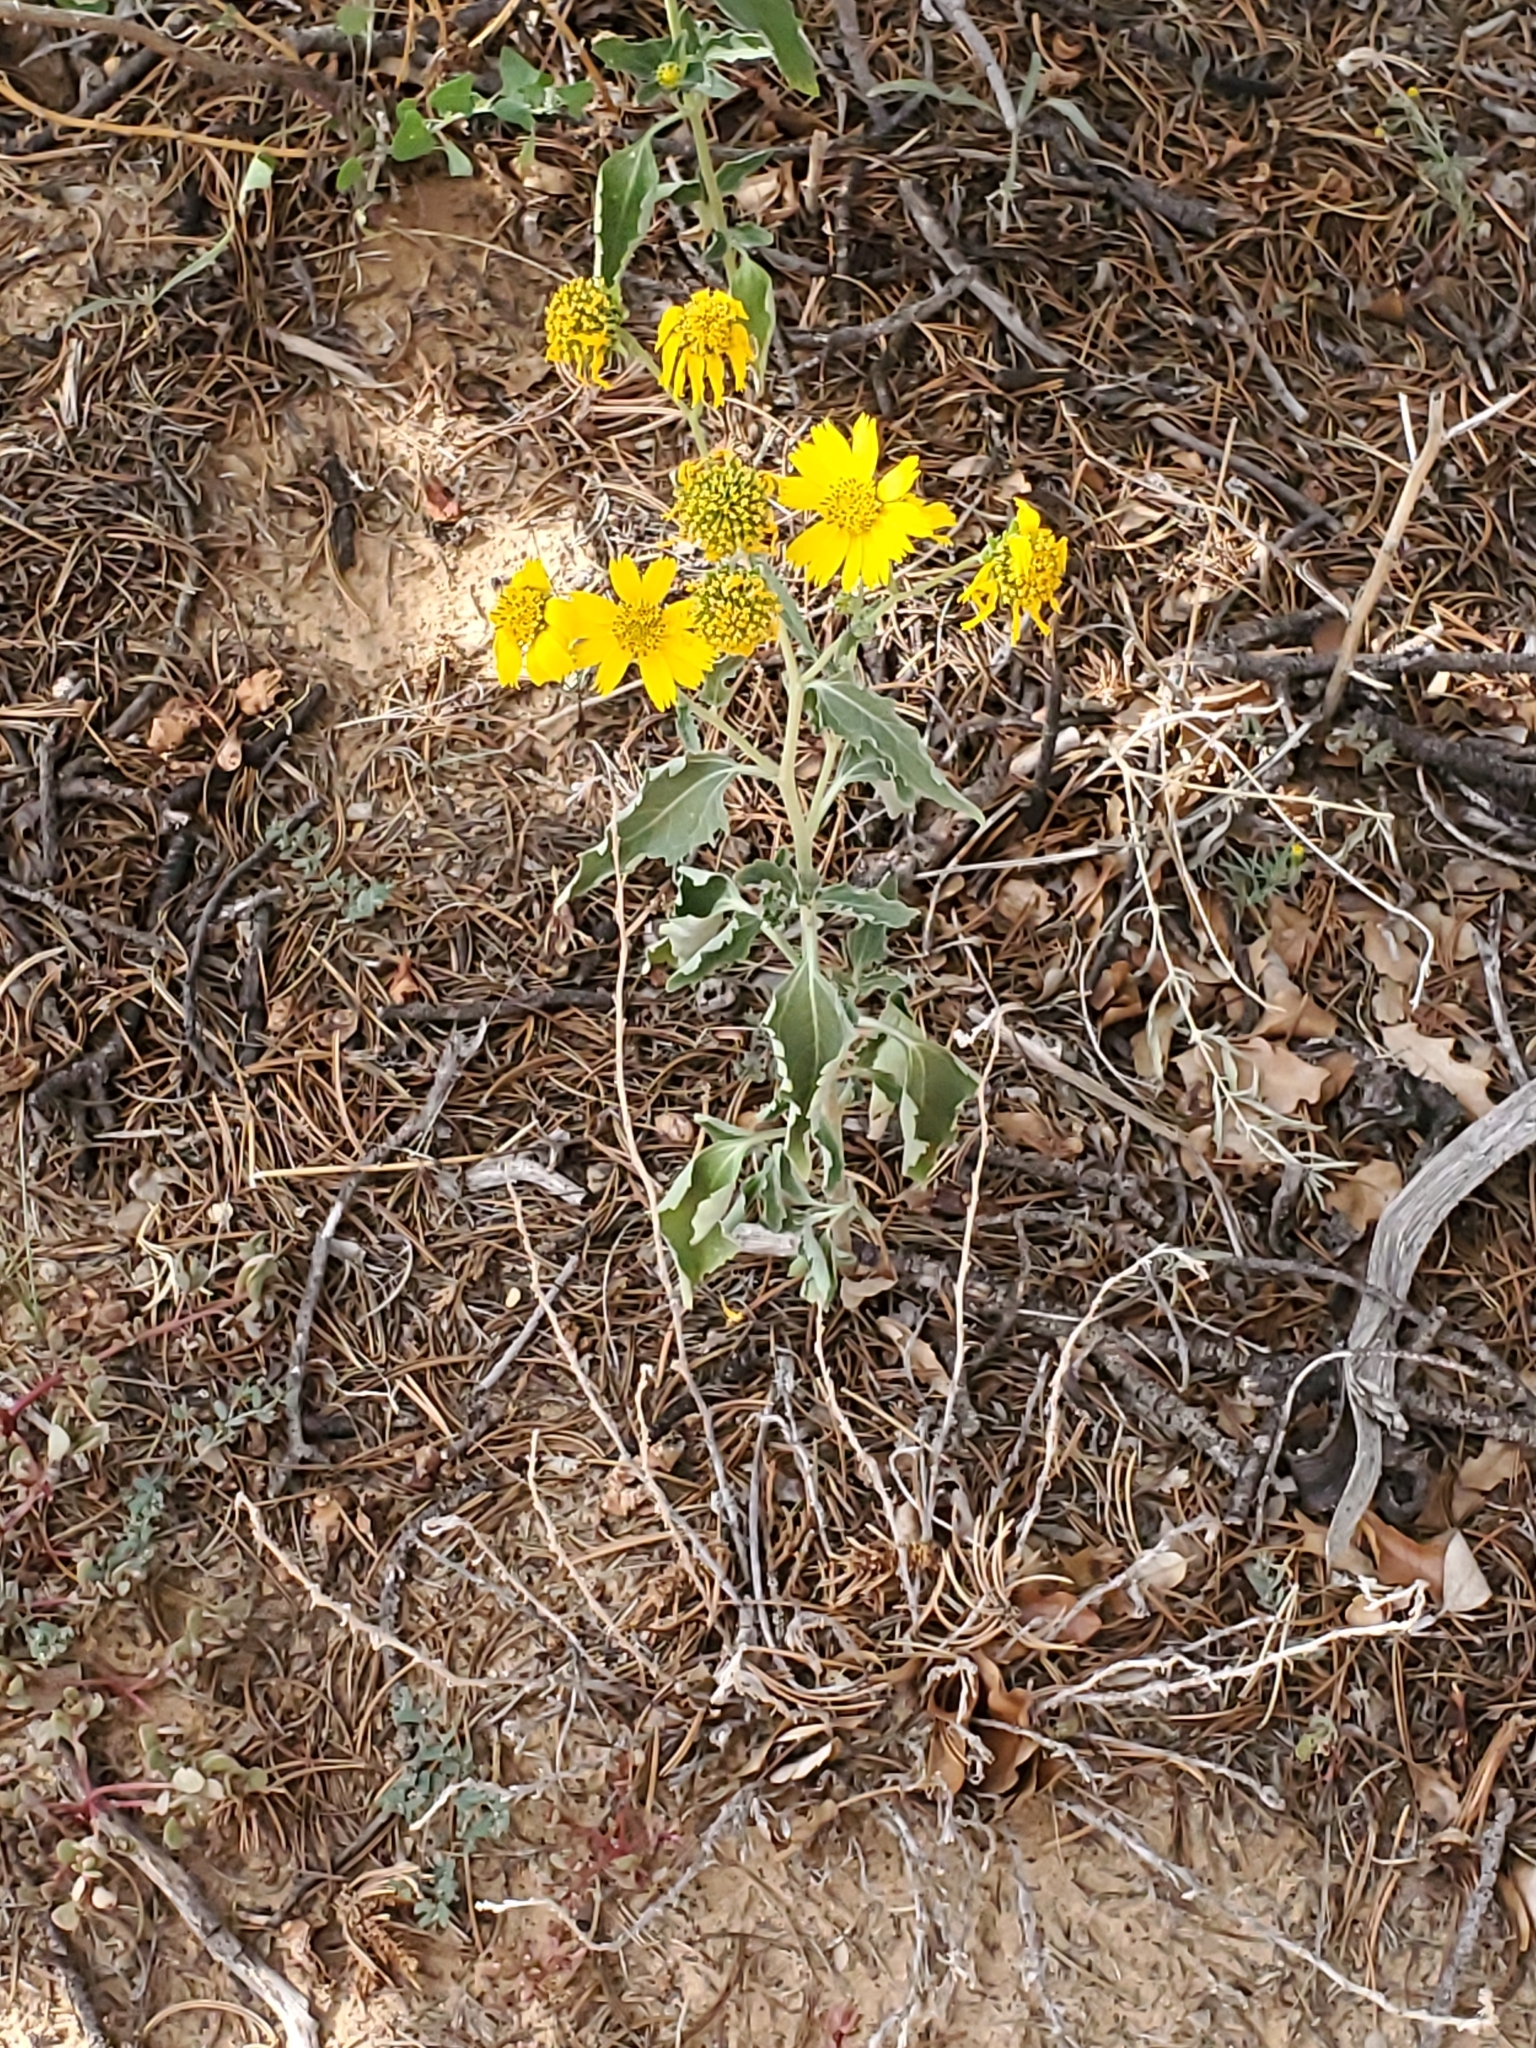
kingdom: Plantae
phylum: Tracheophyta
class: Magnoliopsida
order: Asterales
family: Asteraceae
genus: Verbesina
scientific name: Verbesina encelioides
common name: Golden crownbeard
